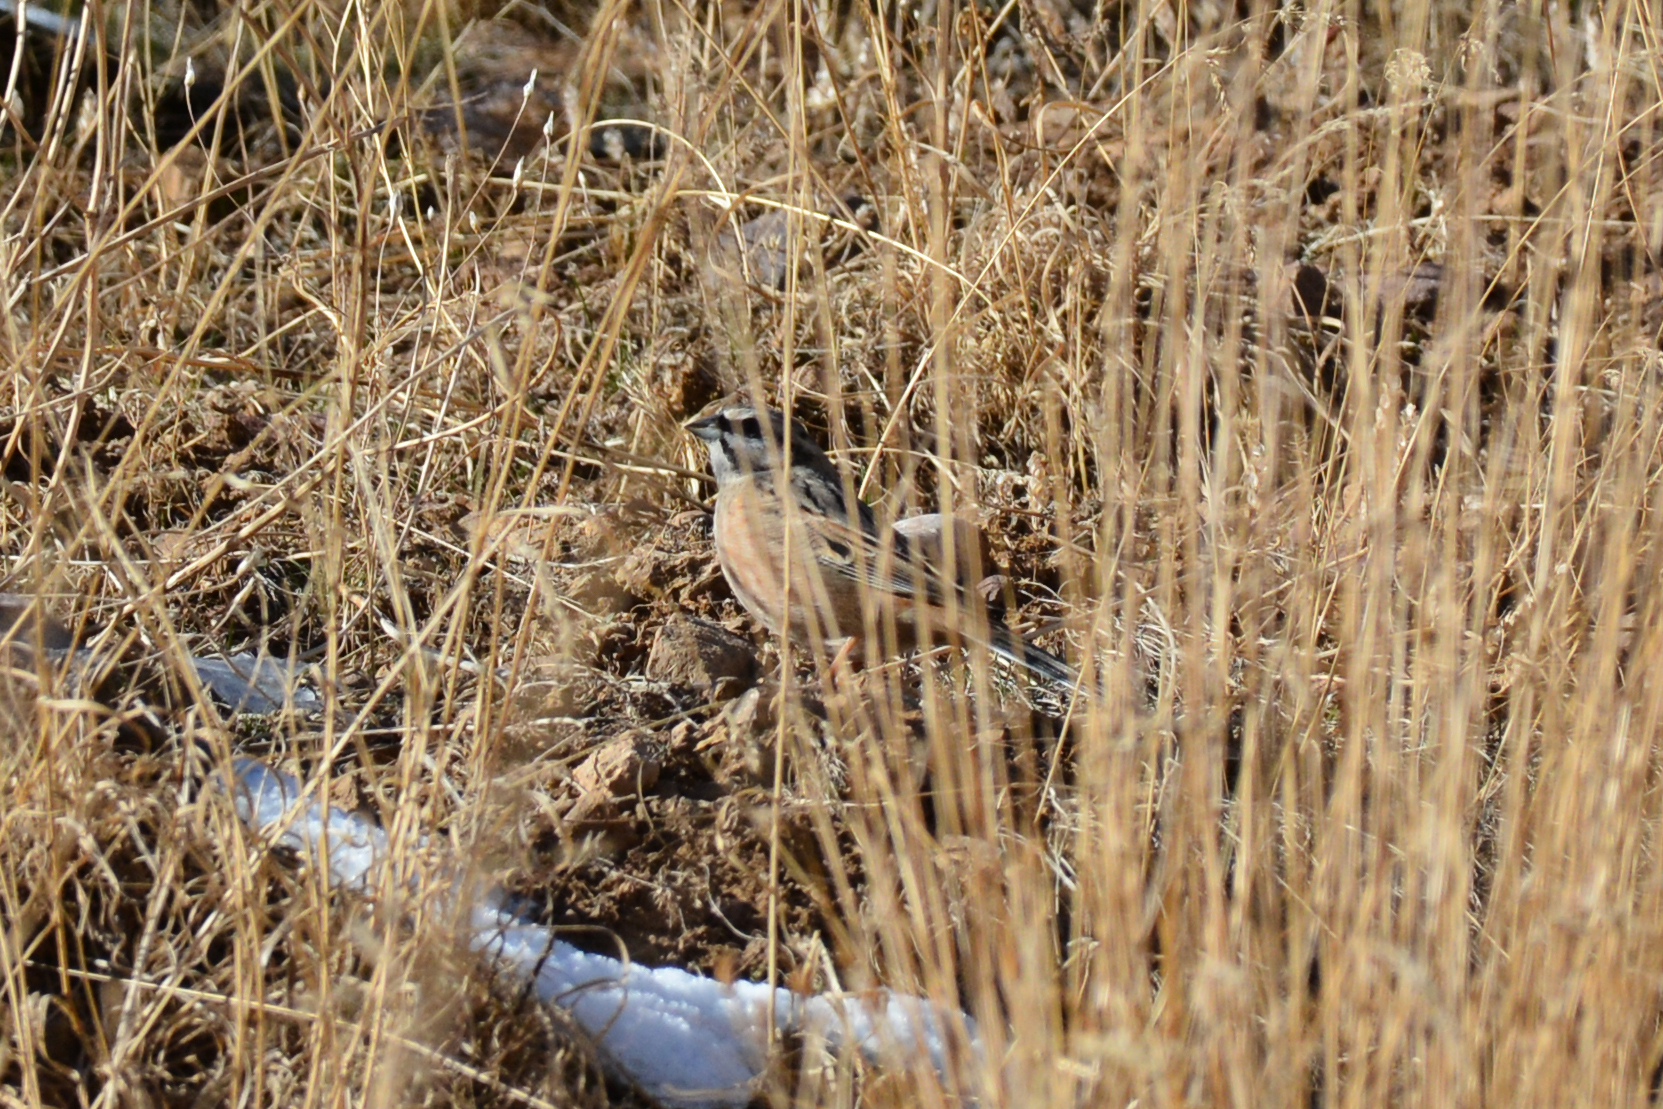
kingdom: Animalia
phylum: Chordata
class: Aves
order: Passeriformes
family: Emberizidae
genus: Emberiza
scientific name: Emberiza cia
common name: Rock bunting
